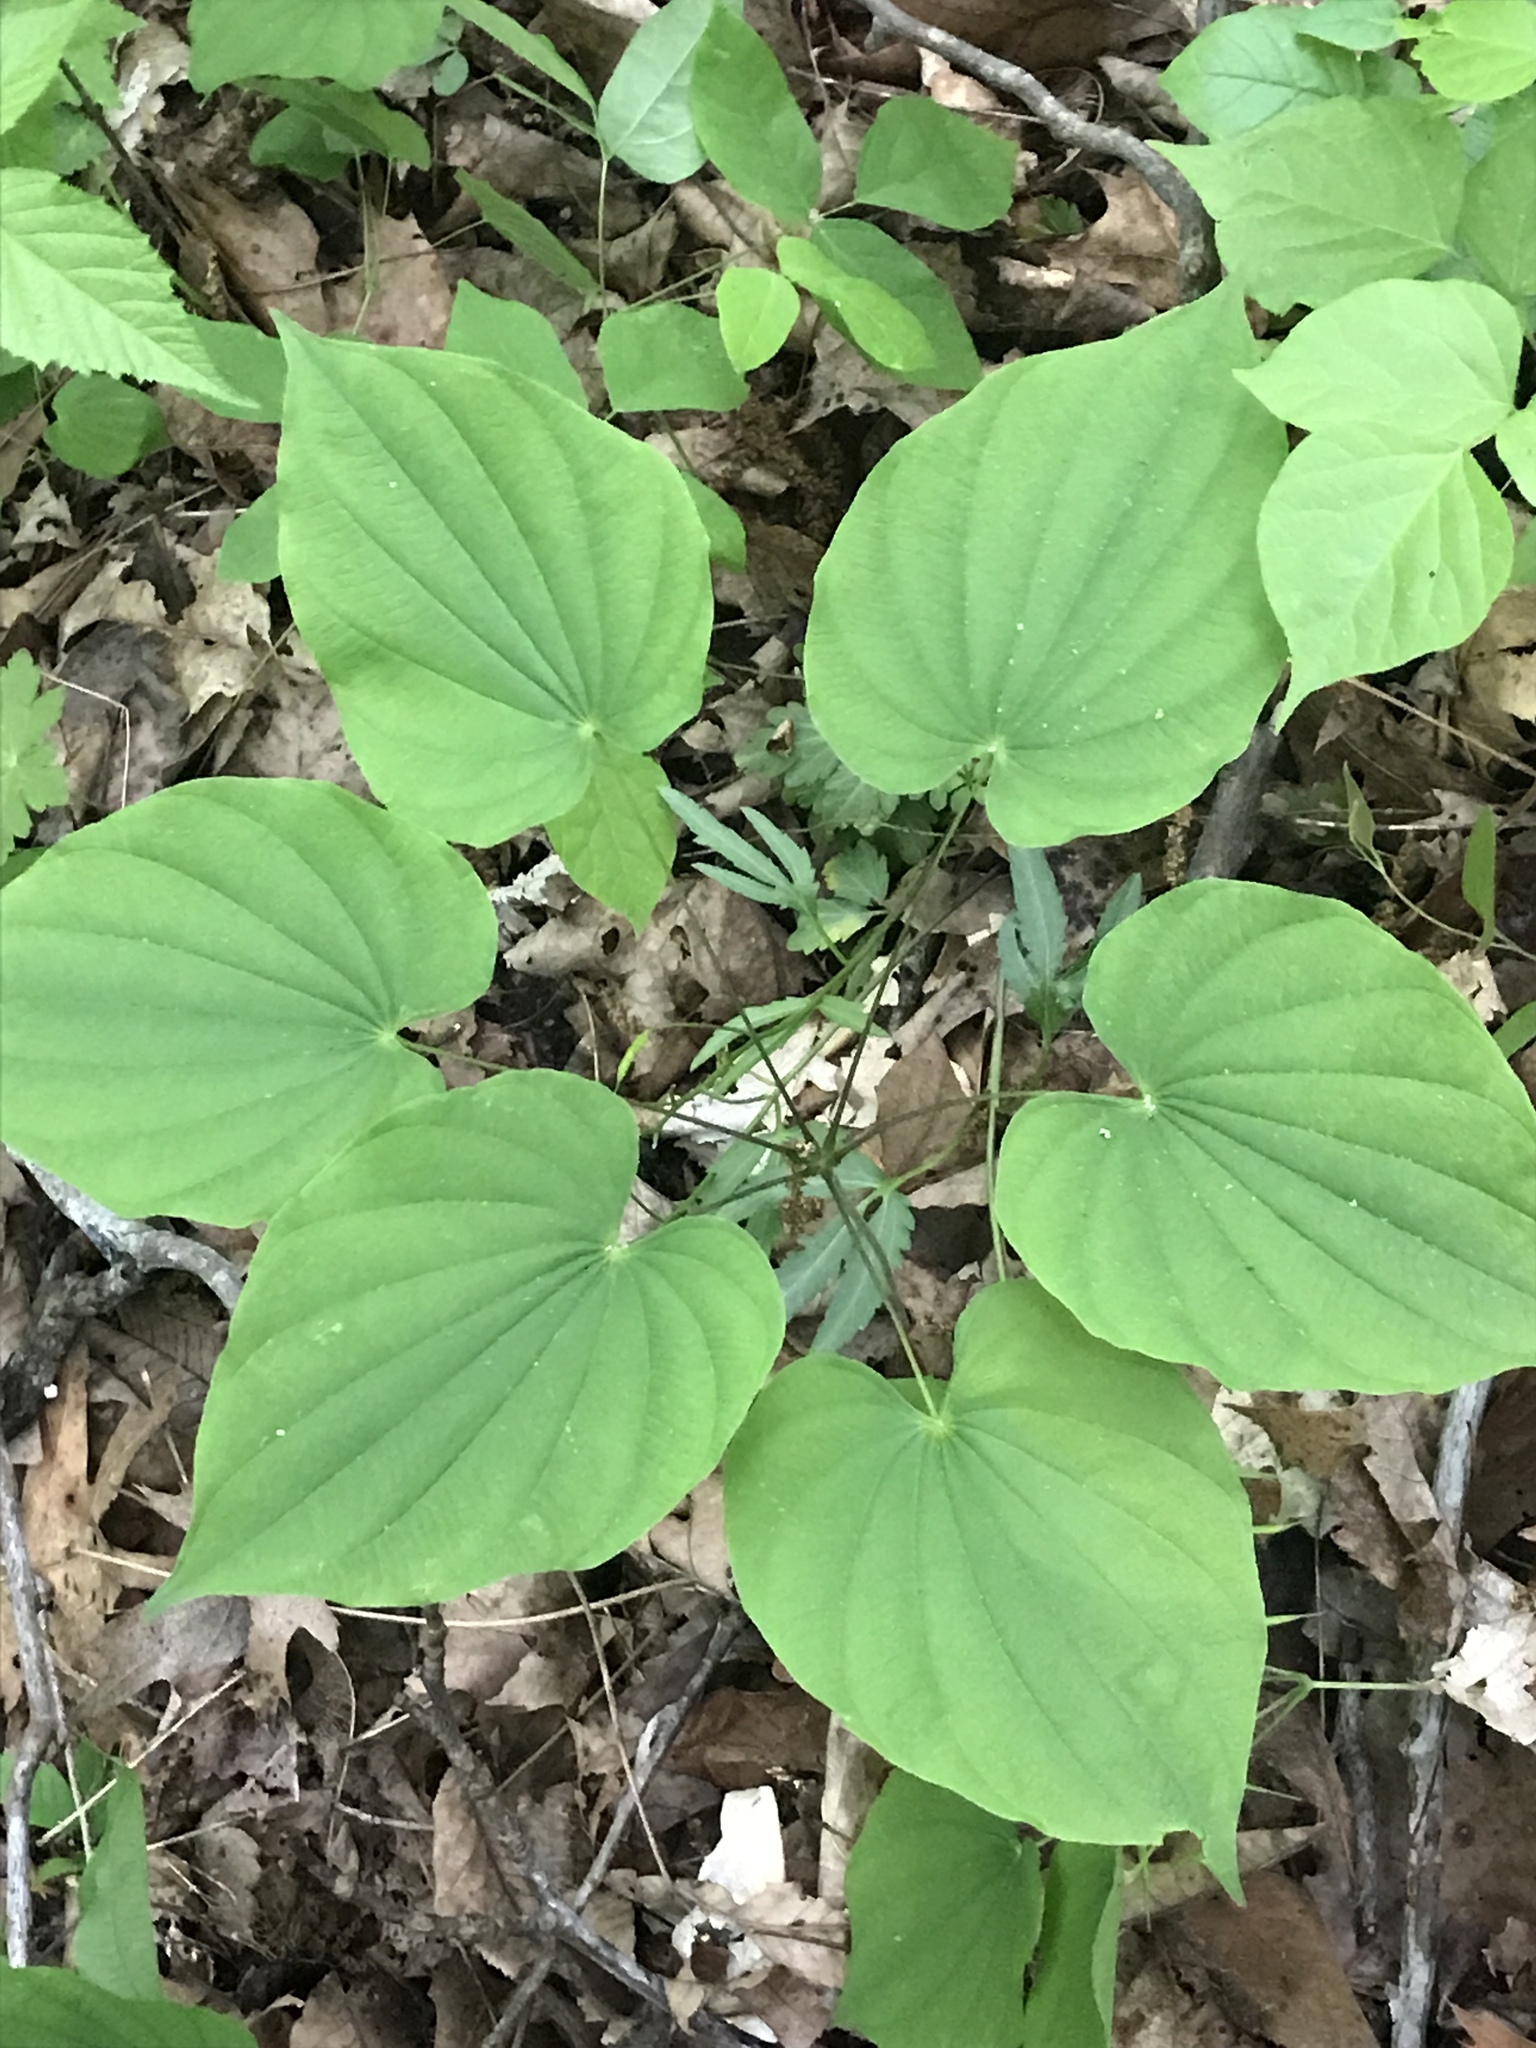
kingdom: Plantae
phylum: Tracheophyta
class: Liliopsida
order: Dioscoreales
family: Dioscoreaceae
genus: Dioscorea
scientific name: Dioscorea villosa
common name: Wild yam
